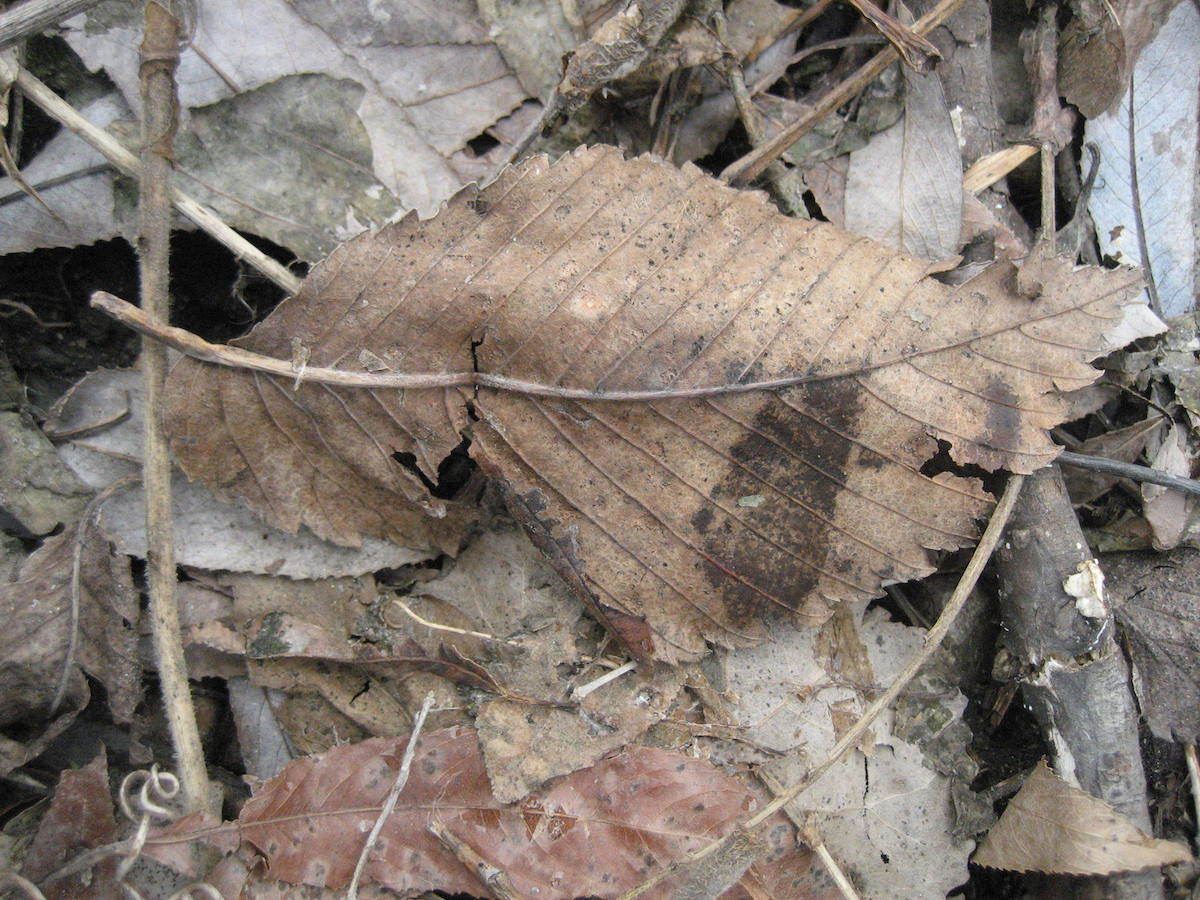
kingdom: Plantae
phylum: Tracheophyta
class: Magnoliopsida
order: Rosales
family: Ulmaceae
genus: Ulmus
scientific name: Ulmus americana
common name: American elm
